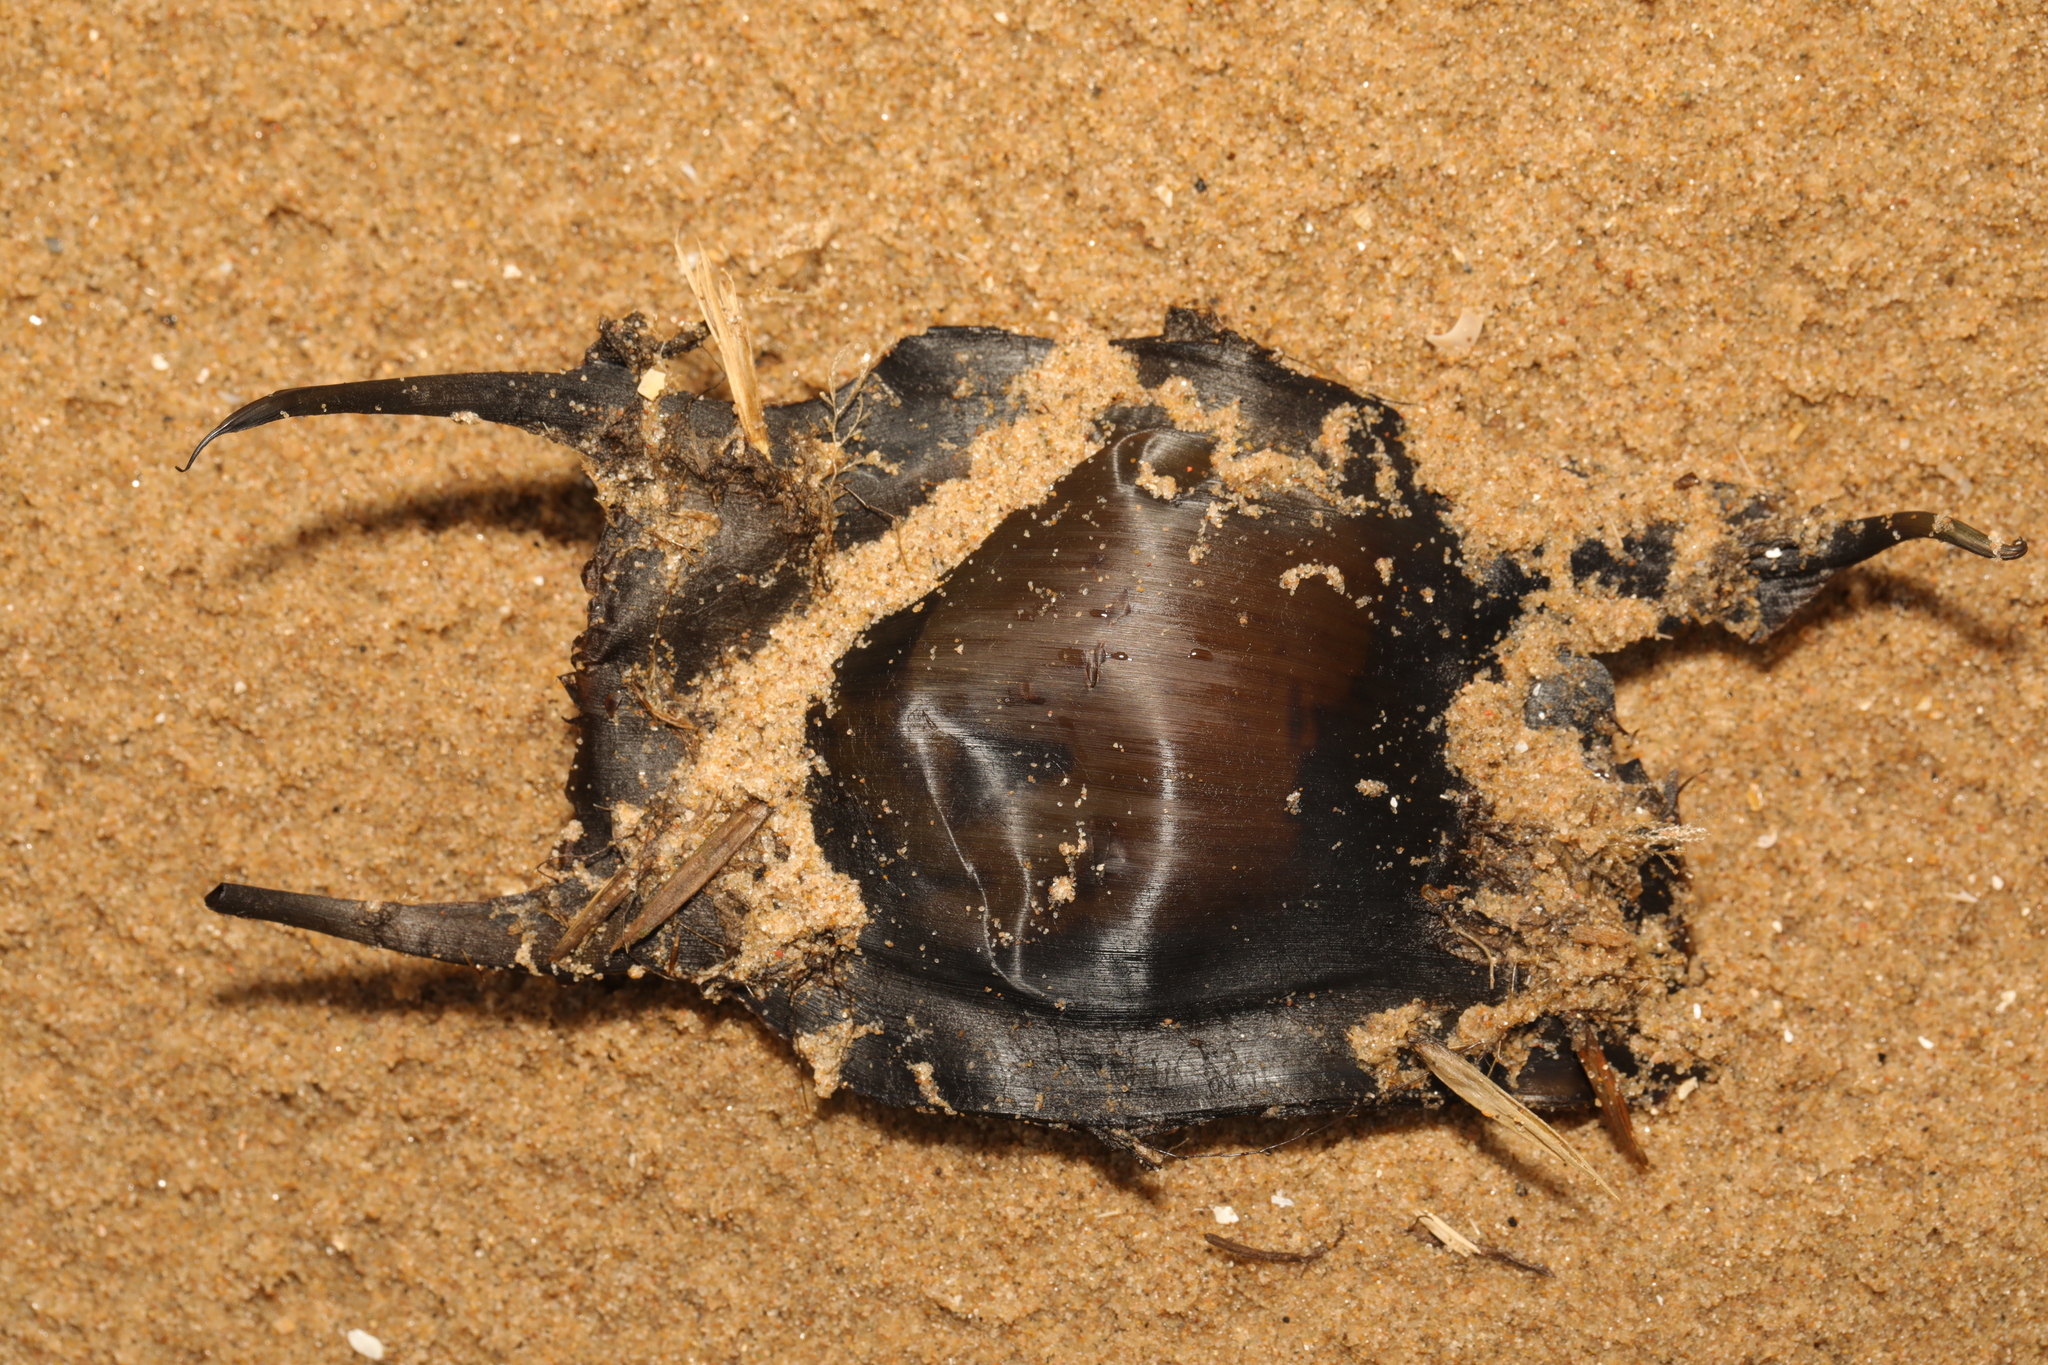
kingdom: Animalia
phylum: Chordata
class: Elasmobranchii
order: Rajiformes
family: Rajidae
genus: Raja
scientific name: Raja clavata
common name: Thornback ray
